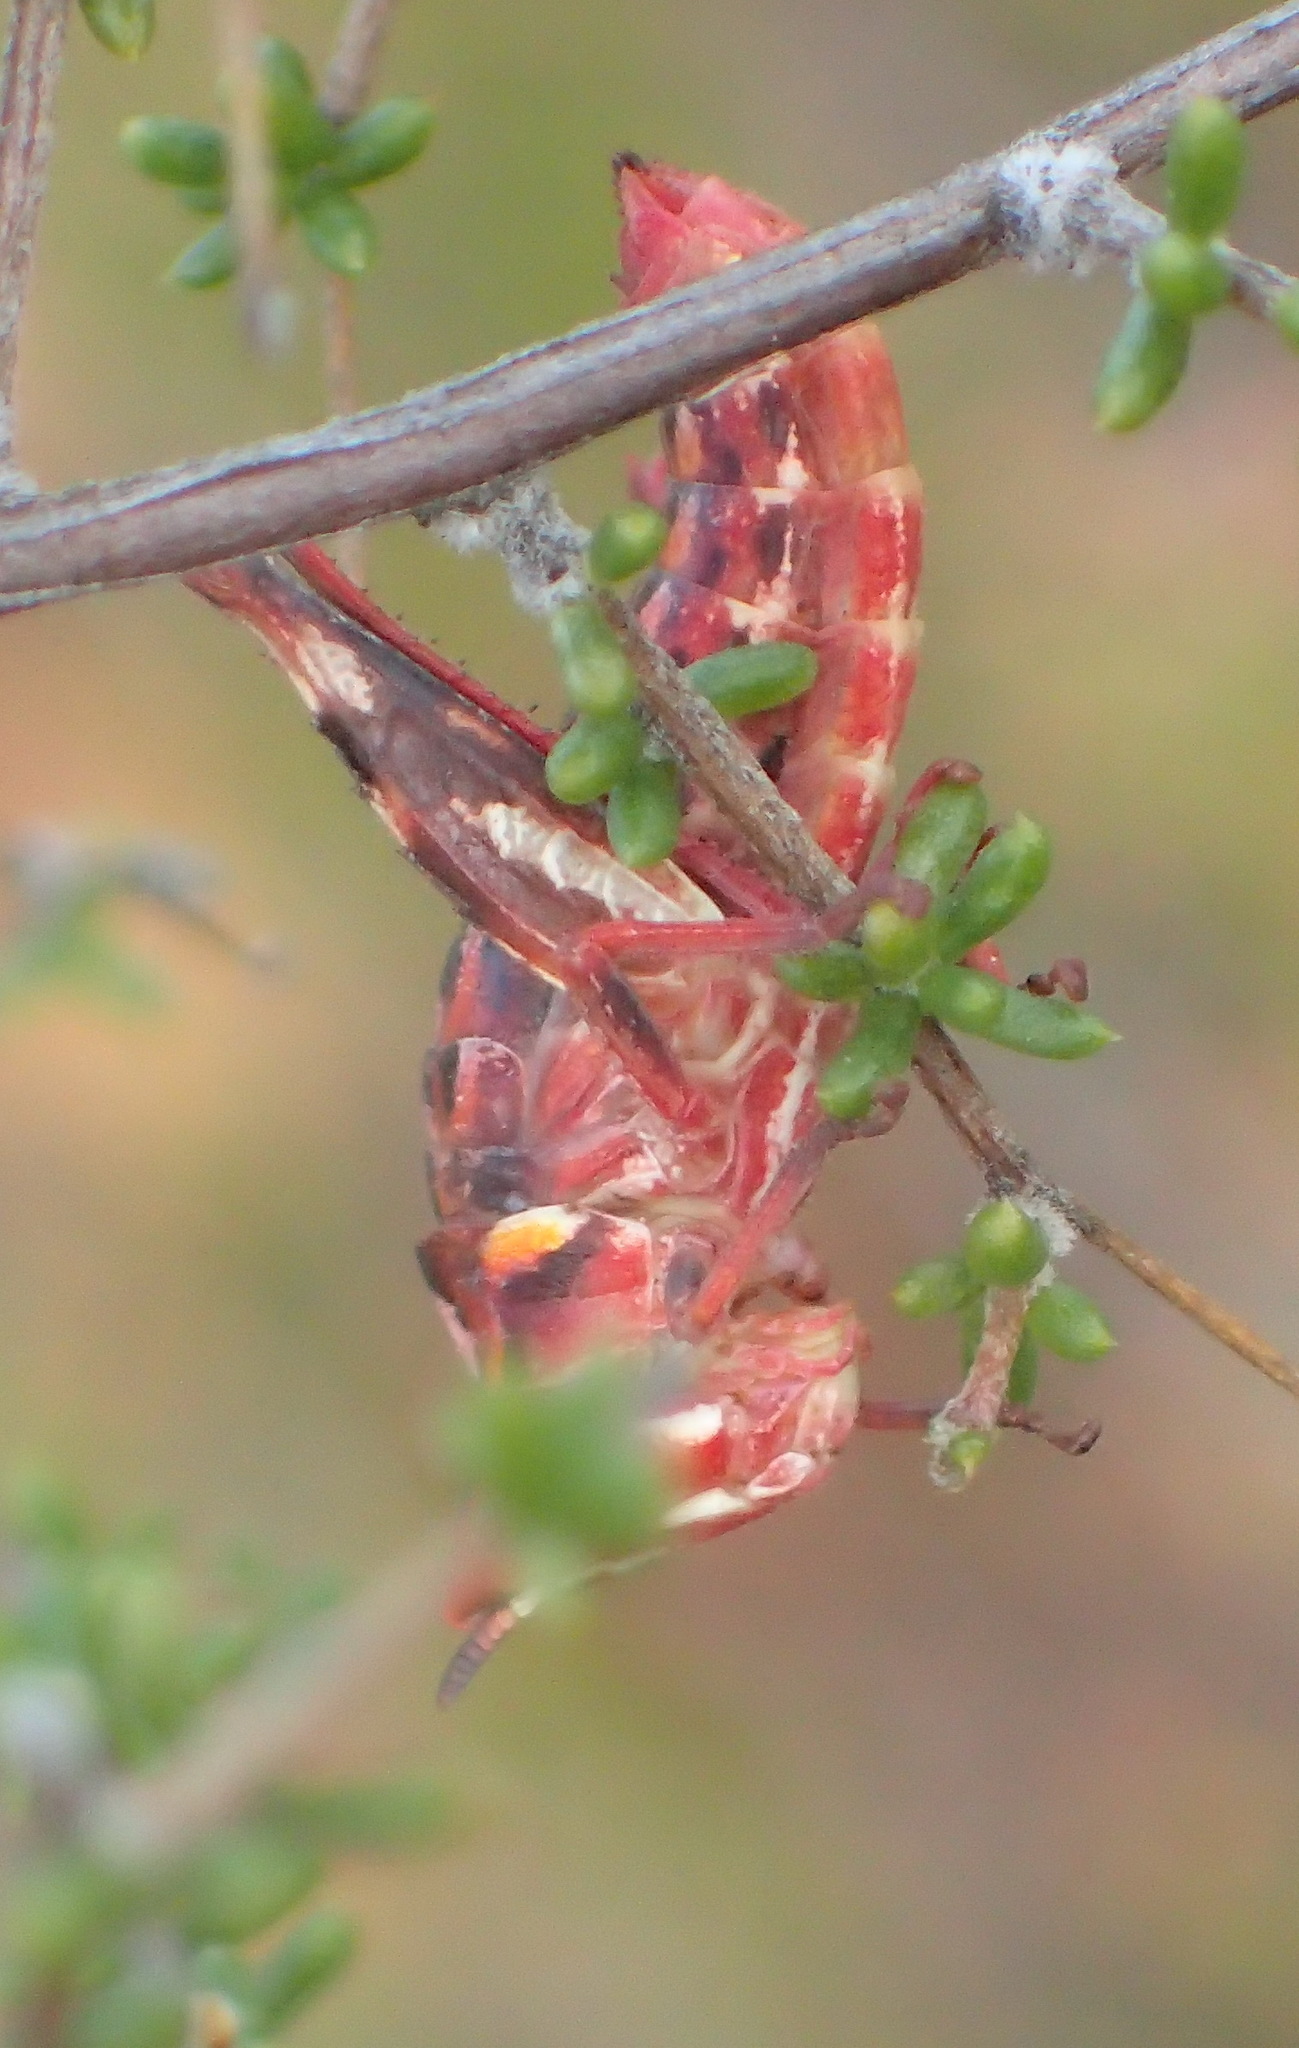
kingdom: Animalia
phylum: Arthropoda
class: Insecta
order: Orthoptera
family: Thericleidae
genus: Thericlesiella
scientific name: Thericlesiella meridionalis
